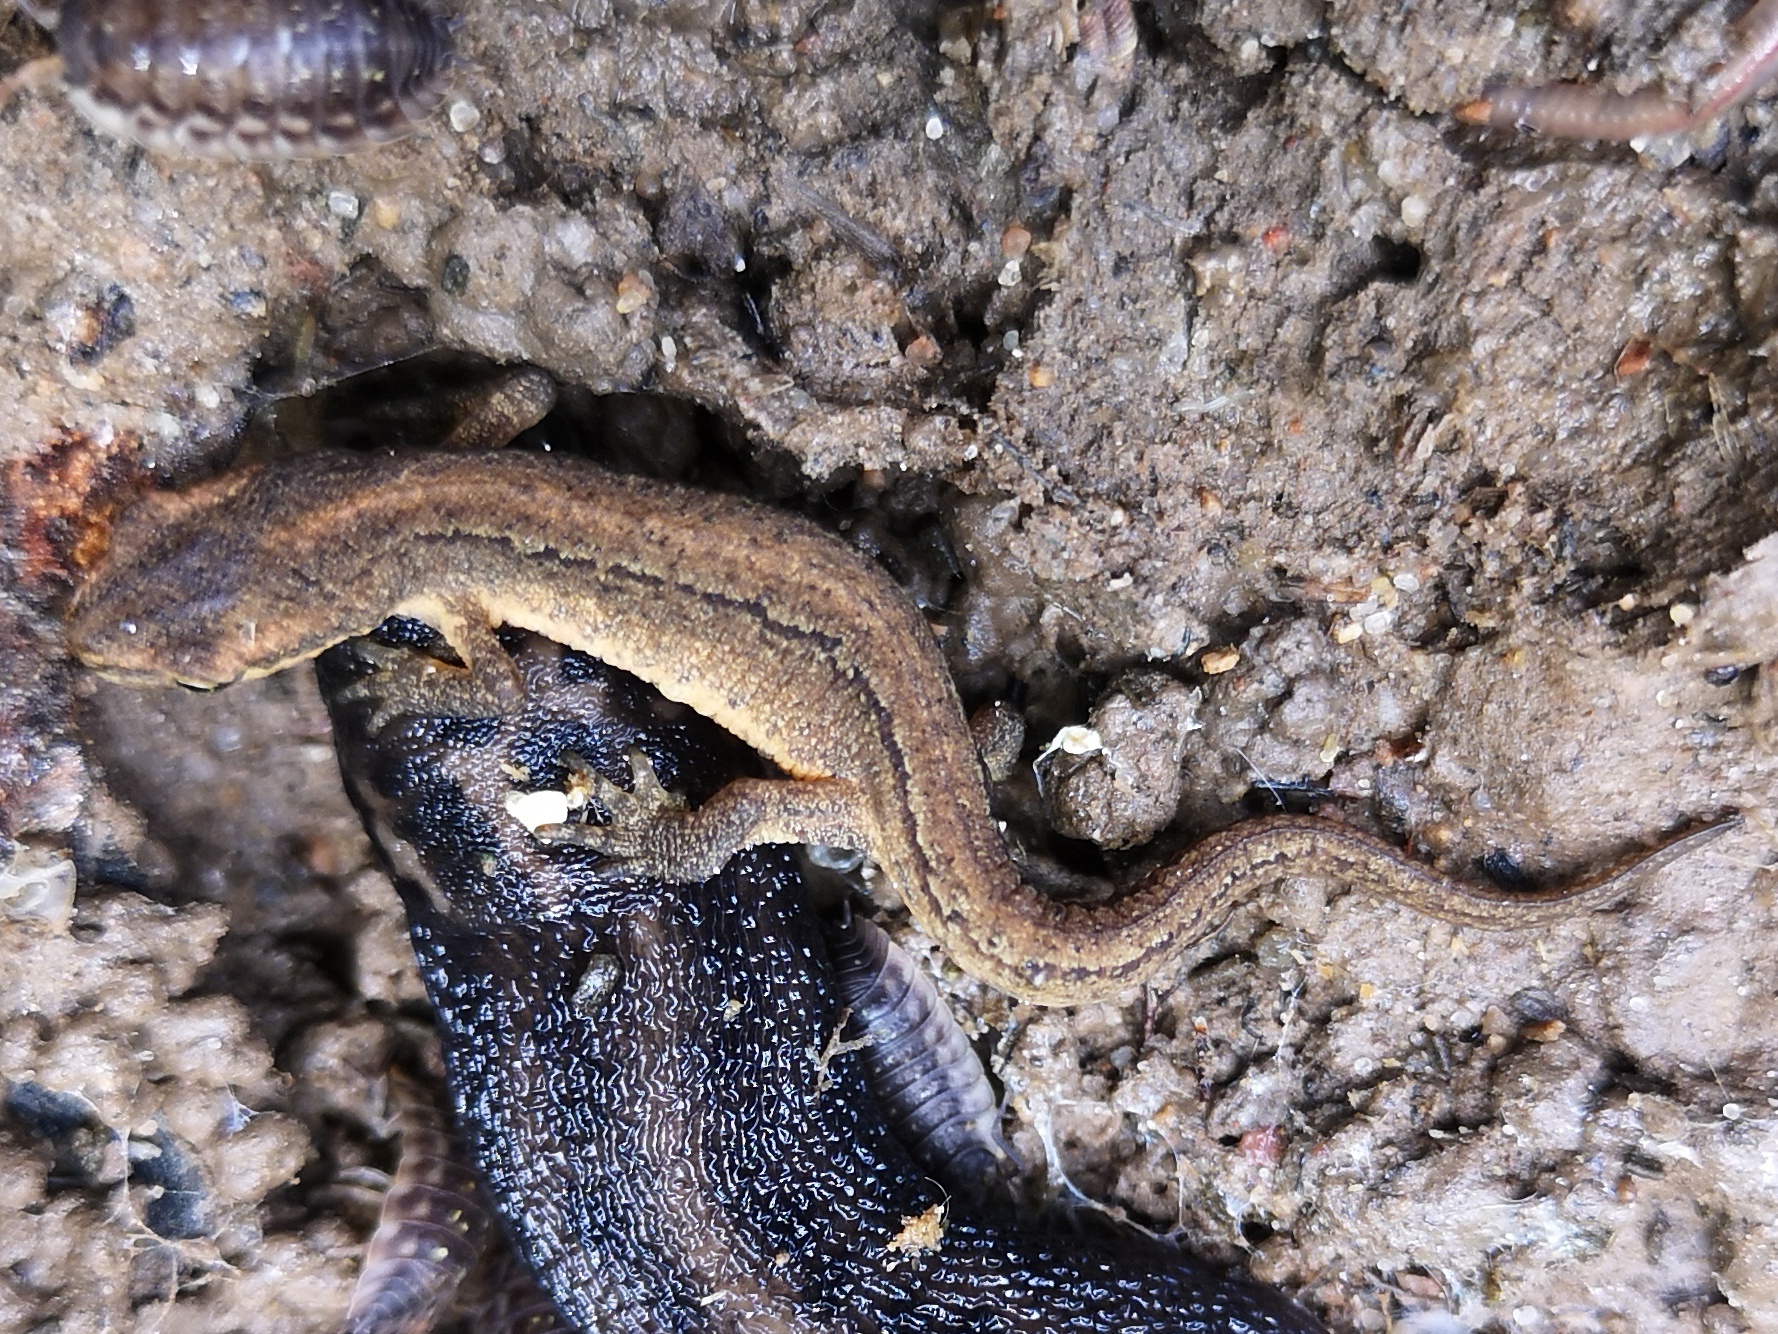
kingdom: Animalia
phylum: Chordata
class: Amphibia
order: Caudata
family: Salamandridae
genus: Lissotriton
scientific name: Lissotriton vulgaris
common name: Smooth newt
